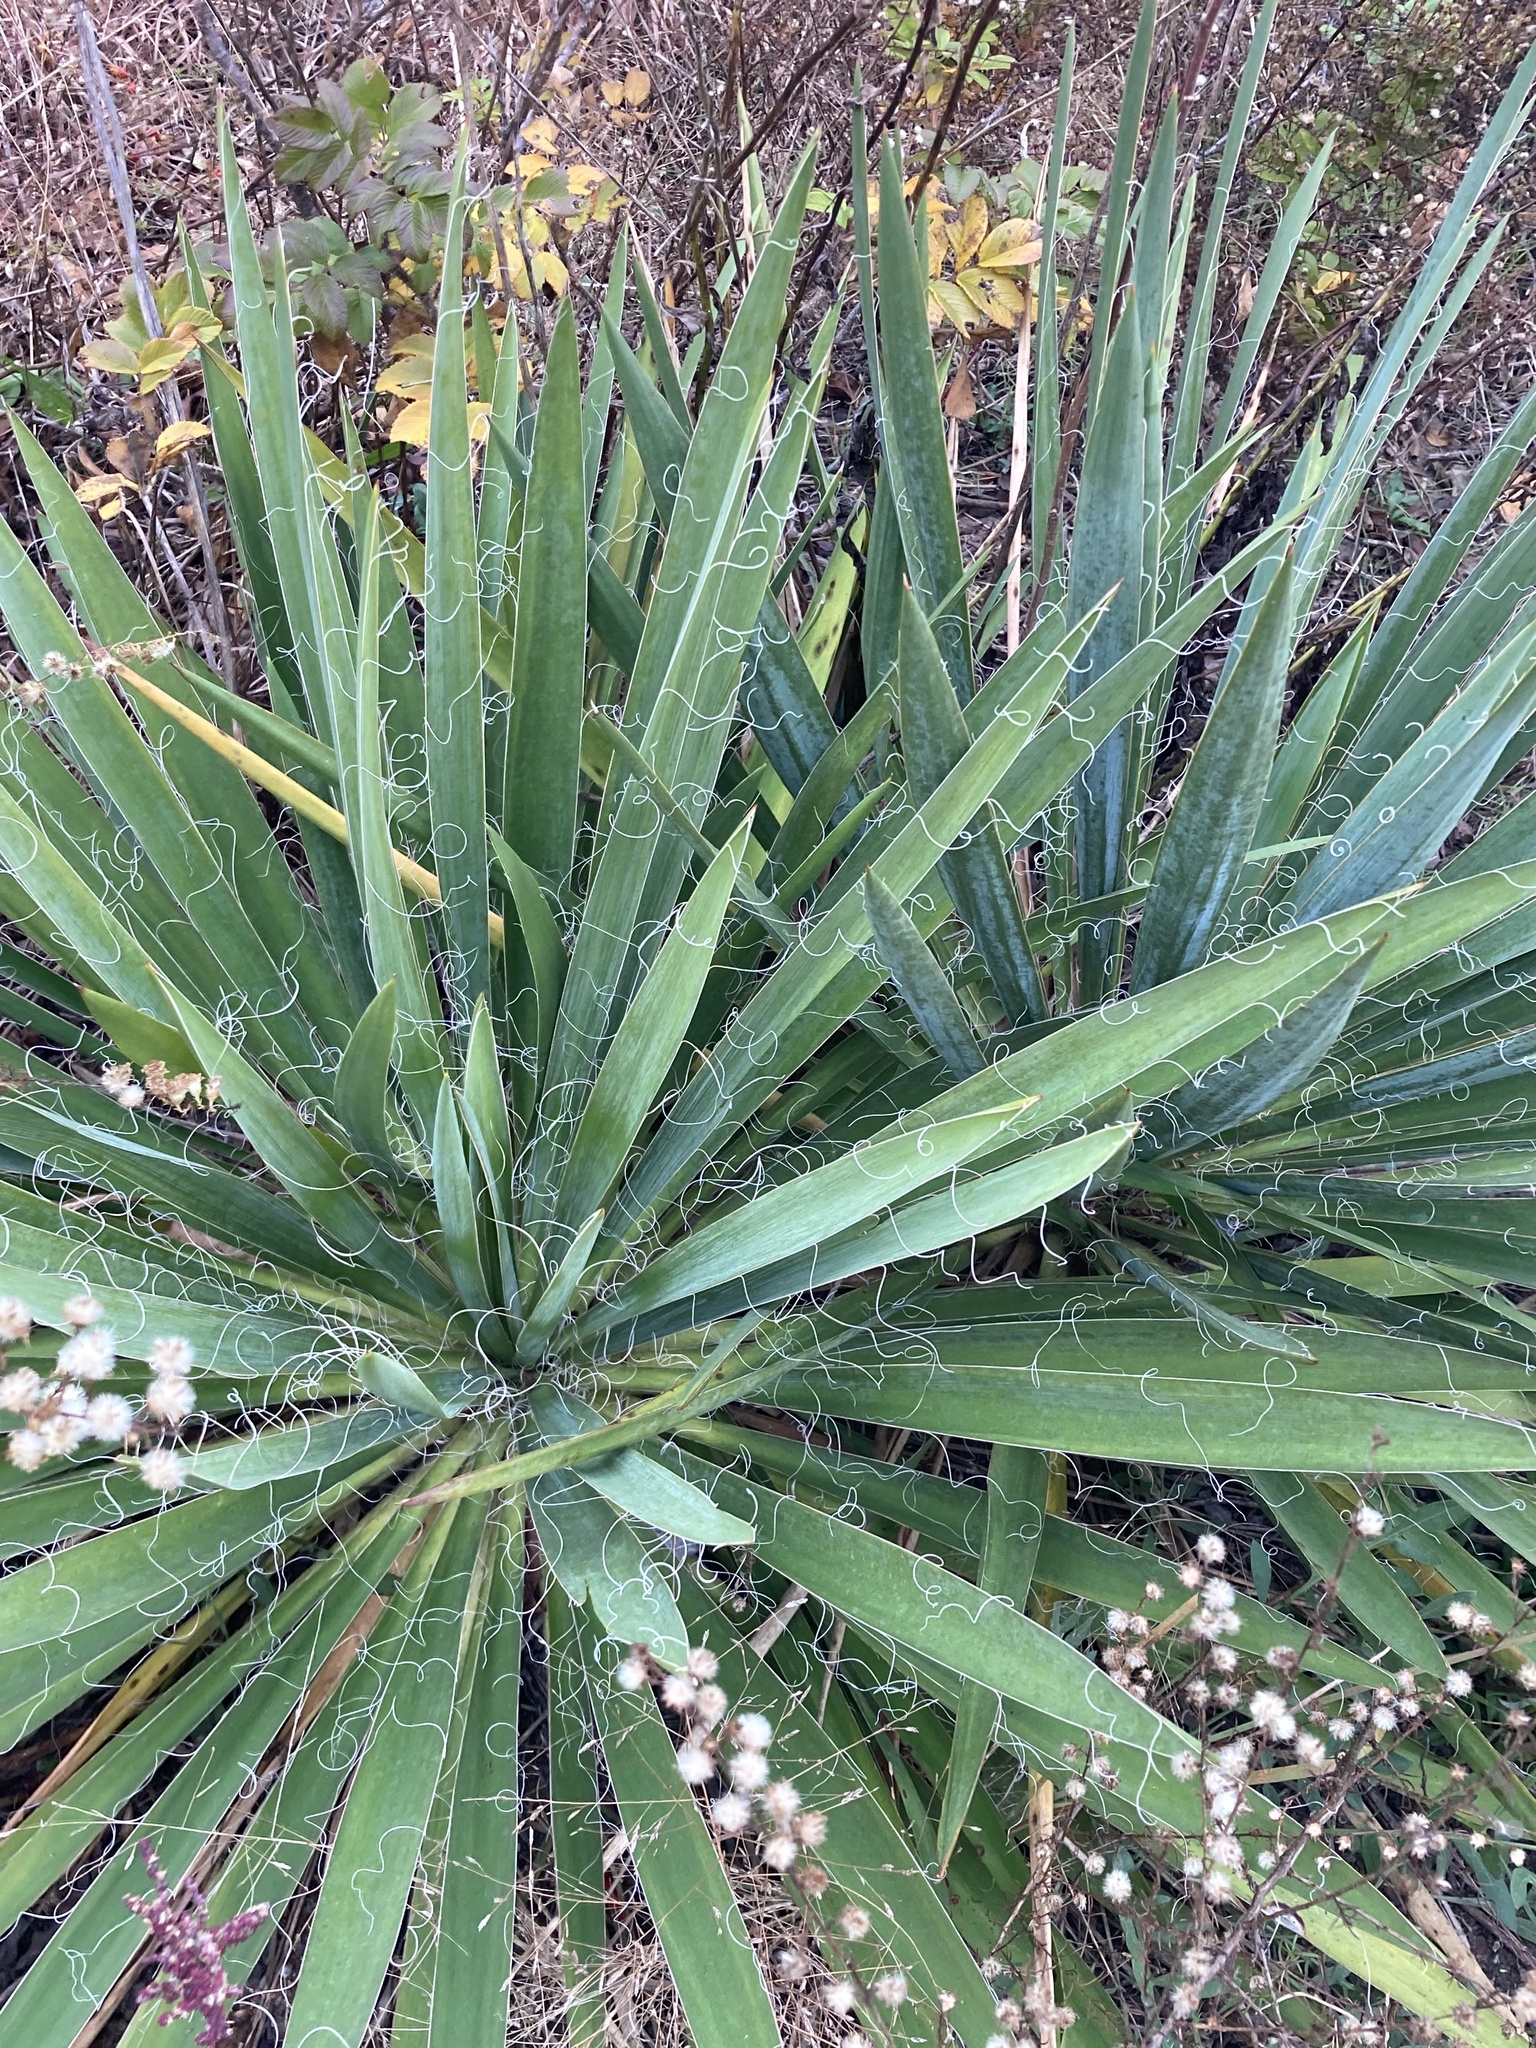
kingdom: Plantae
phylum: Tracheophyta
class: Liliopsida
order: Asparagales
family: Asparagaceae
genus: Yucca
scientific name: Yucca filamentosa
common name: Adam's-needle
